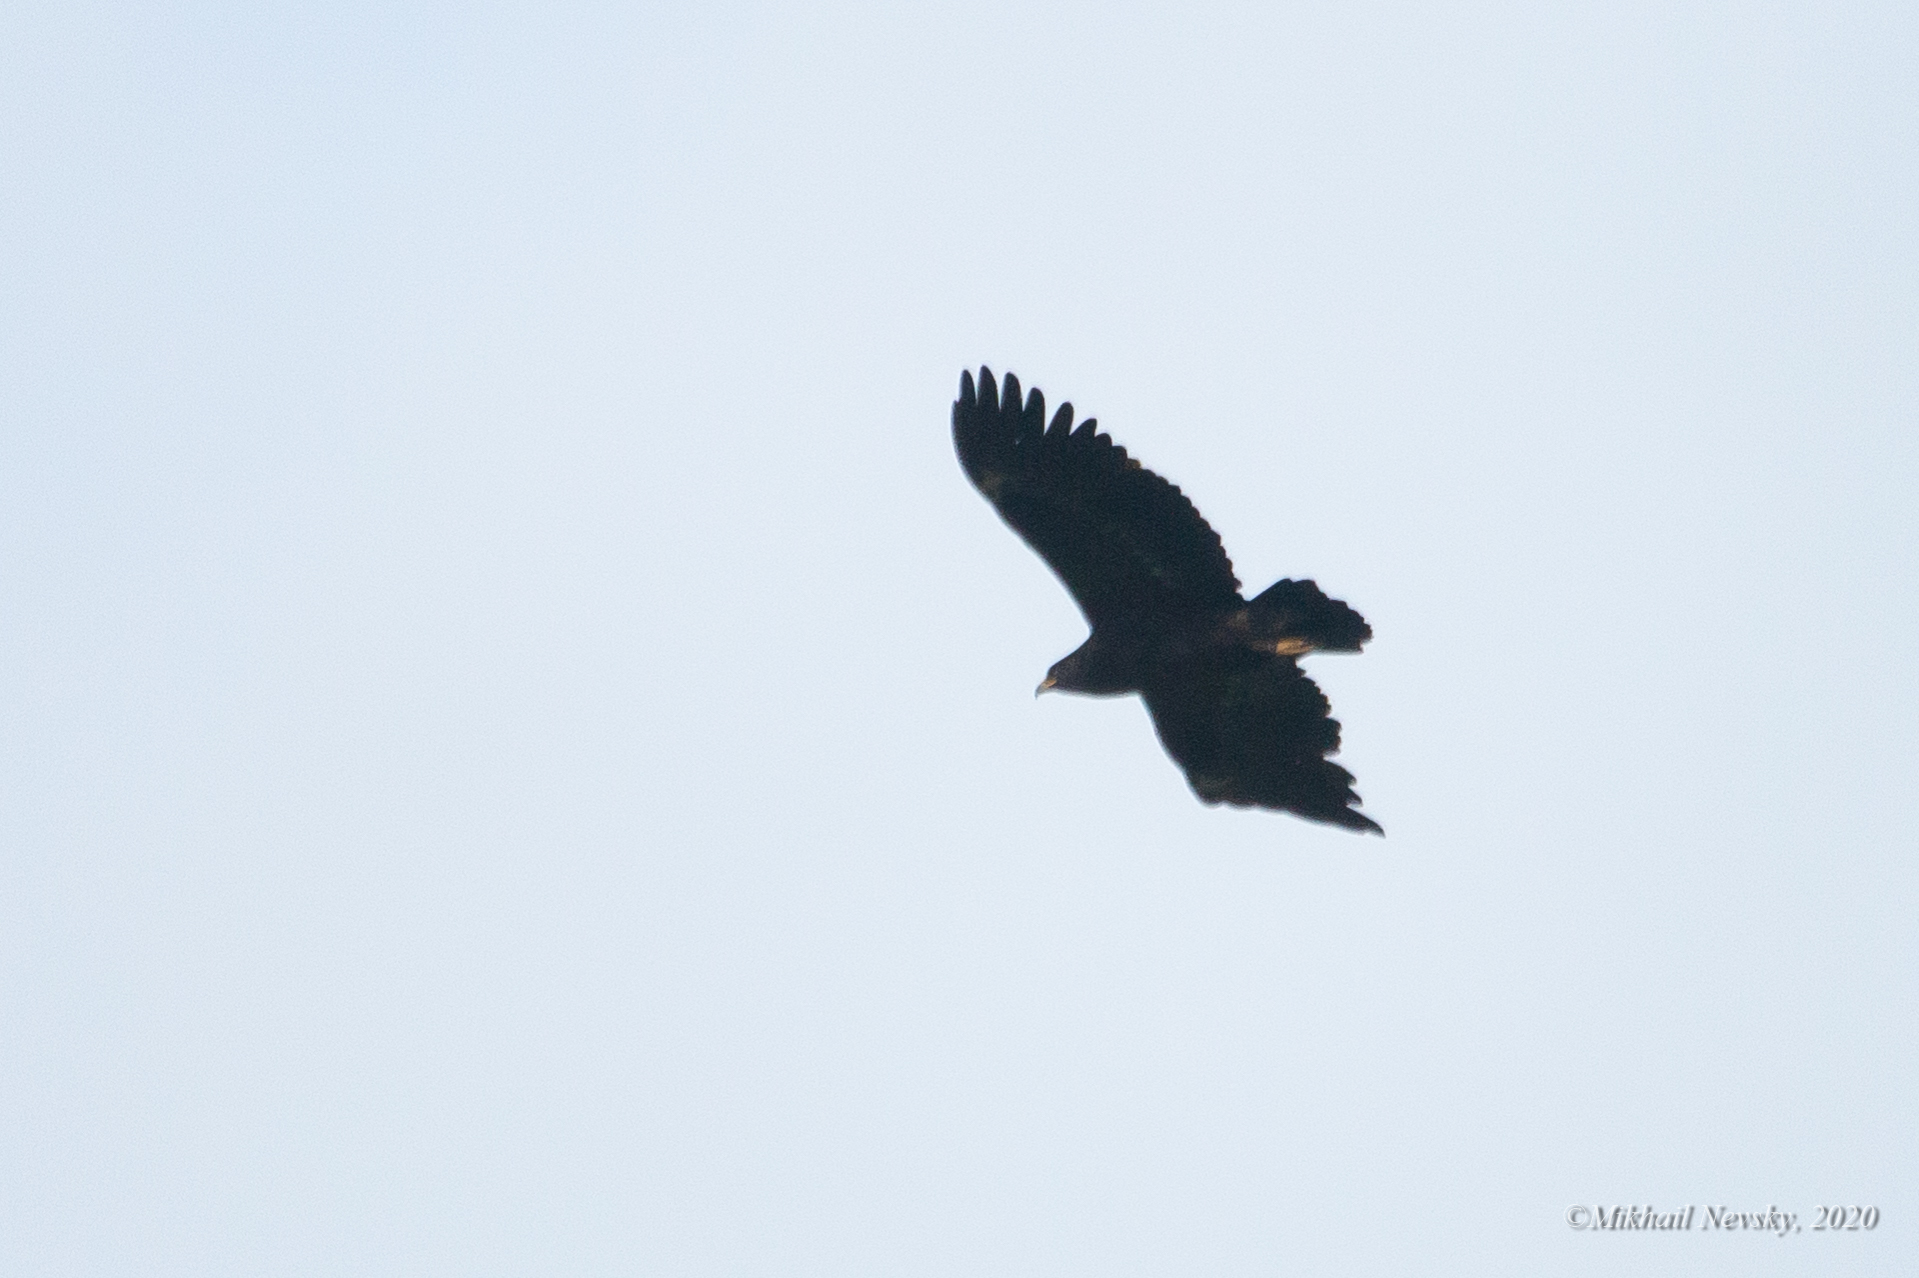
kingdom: Animalia
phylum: Chordata
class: Aves
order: Accipitriformes
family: Accipitridae
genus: Aquila
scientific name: Aquila clanga
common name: Greater spotted eagle
